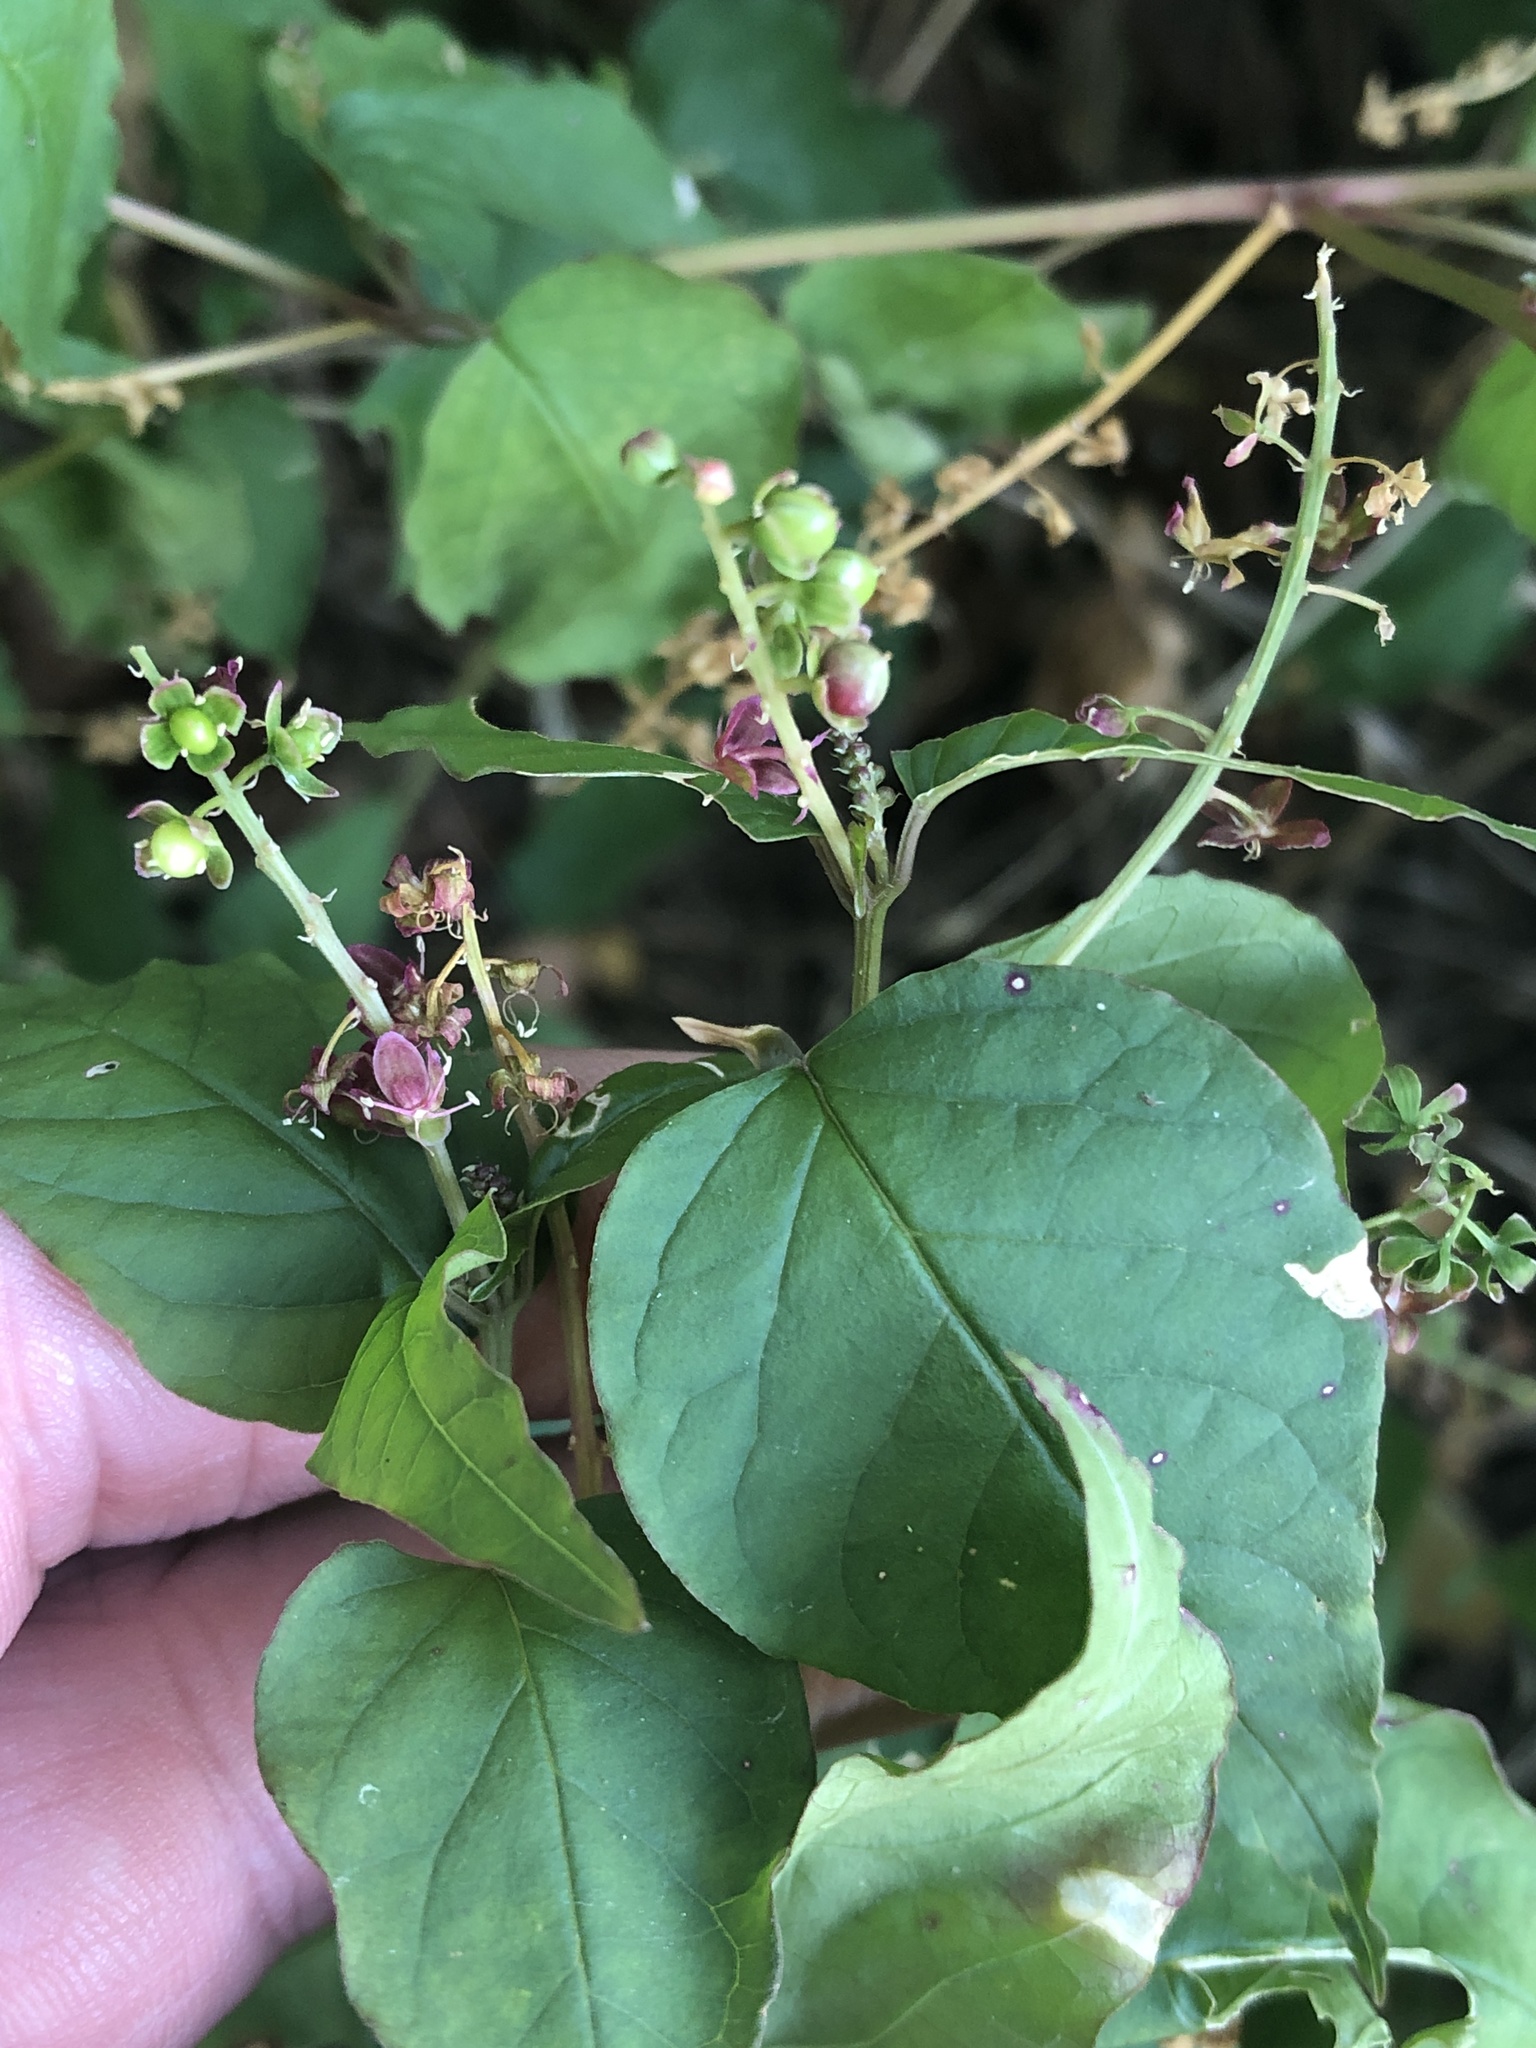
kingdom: Plantae
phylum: Tracheophyta
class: Magnoliopsida
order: Caryophyllales
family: Phytolaccaceae
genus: Rivina
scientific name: Rivina humilis
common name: Rougeplant
